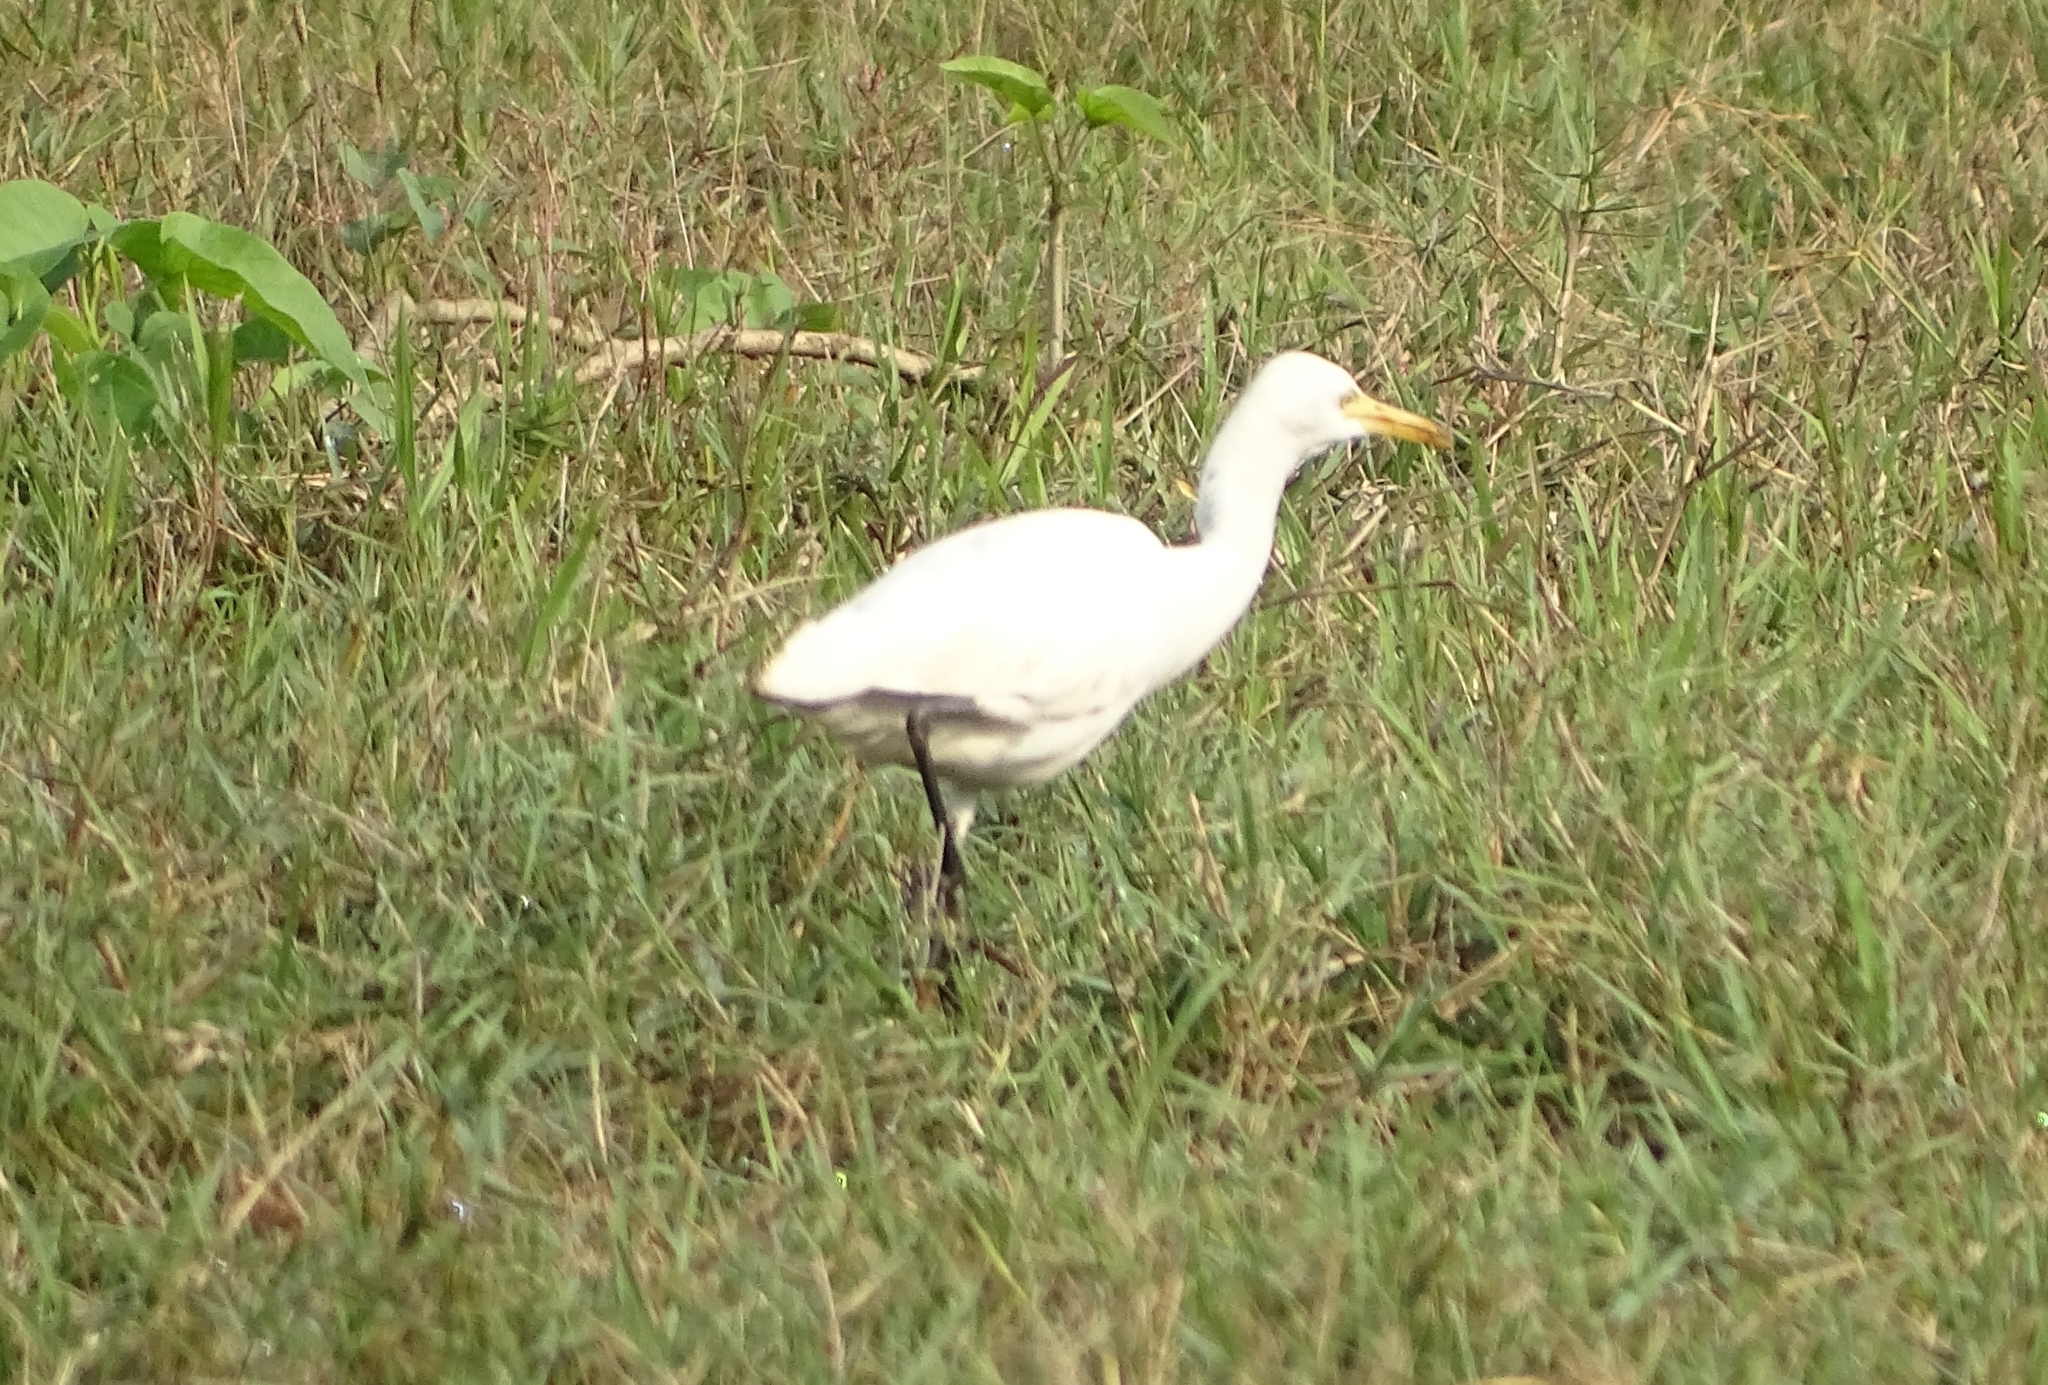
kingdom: Animalia
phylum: Chordata
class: Aves
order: Pelecaniformes
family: Ardeidae
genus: Bubulcus
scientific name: Bubulcus coromandus
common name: Eastern cattle egret
